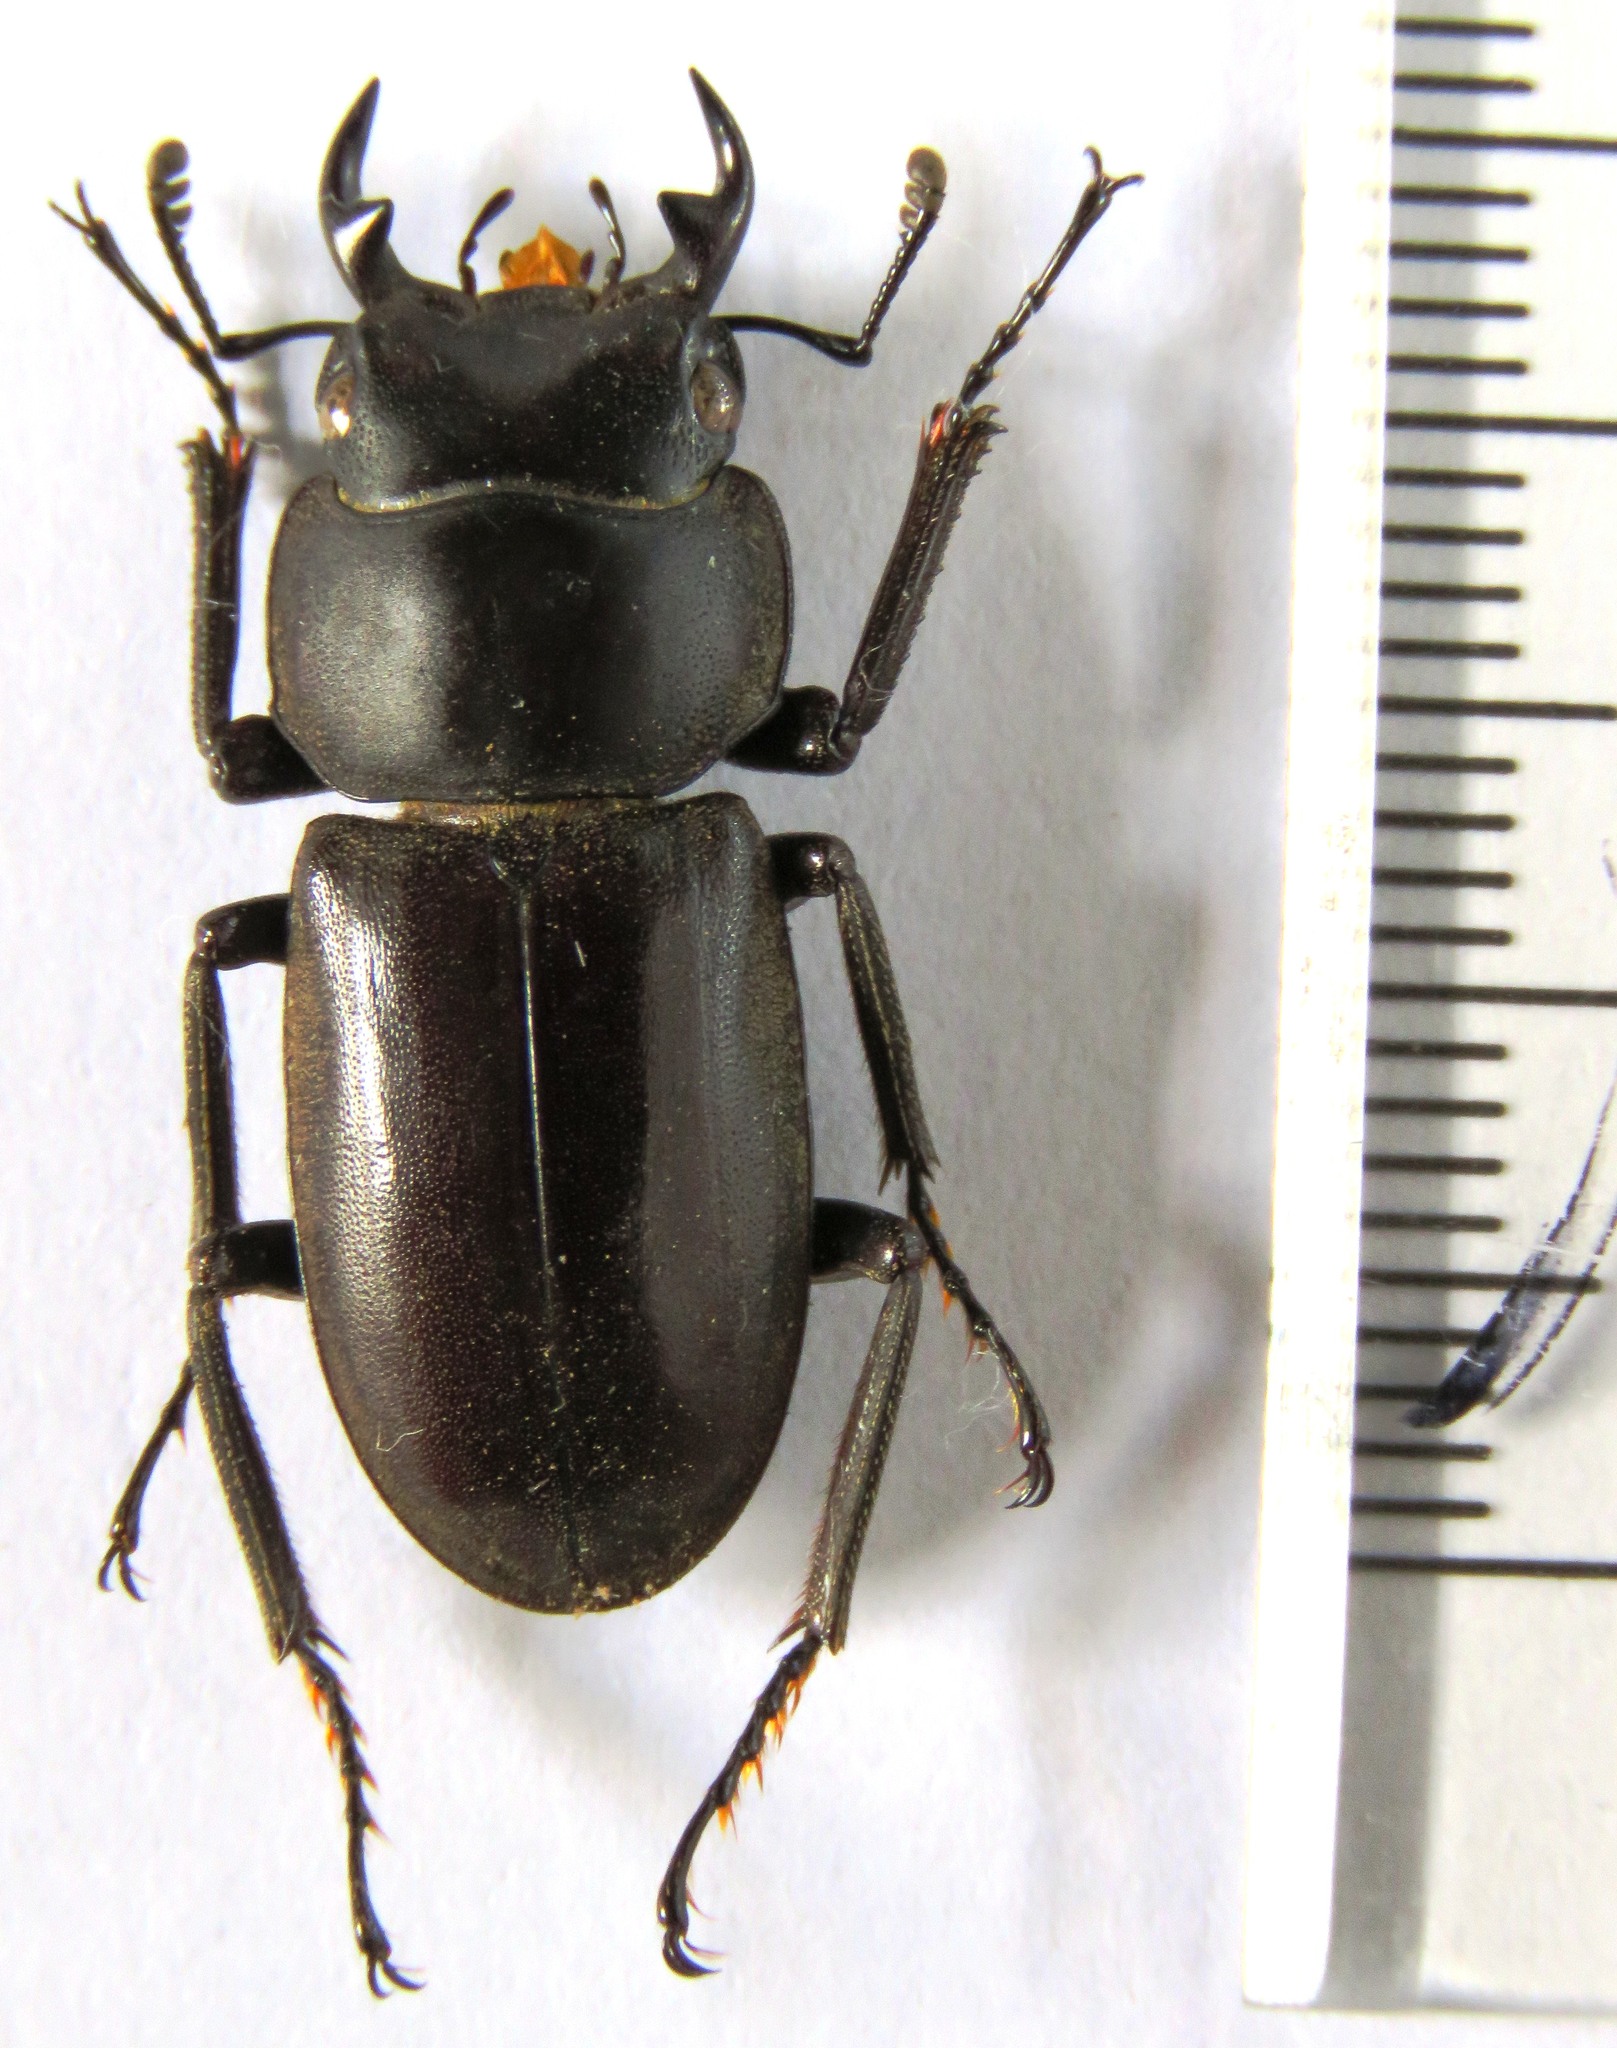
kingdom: Animalia
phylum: Arthropoda
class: Insecta
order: Coleoptera
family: Lucanidae
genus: Dorcus
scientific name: Dorcus amamianus
